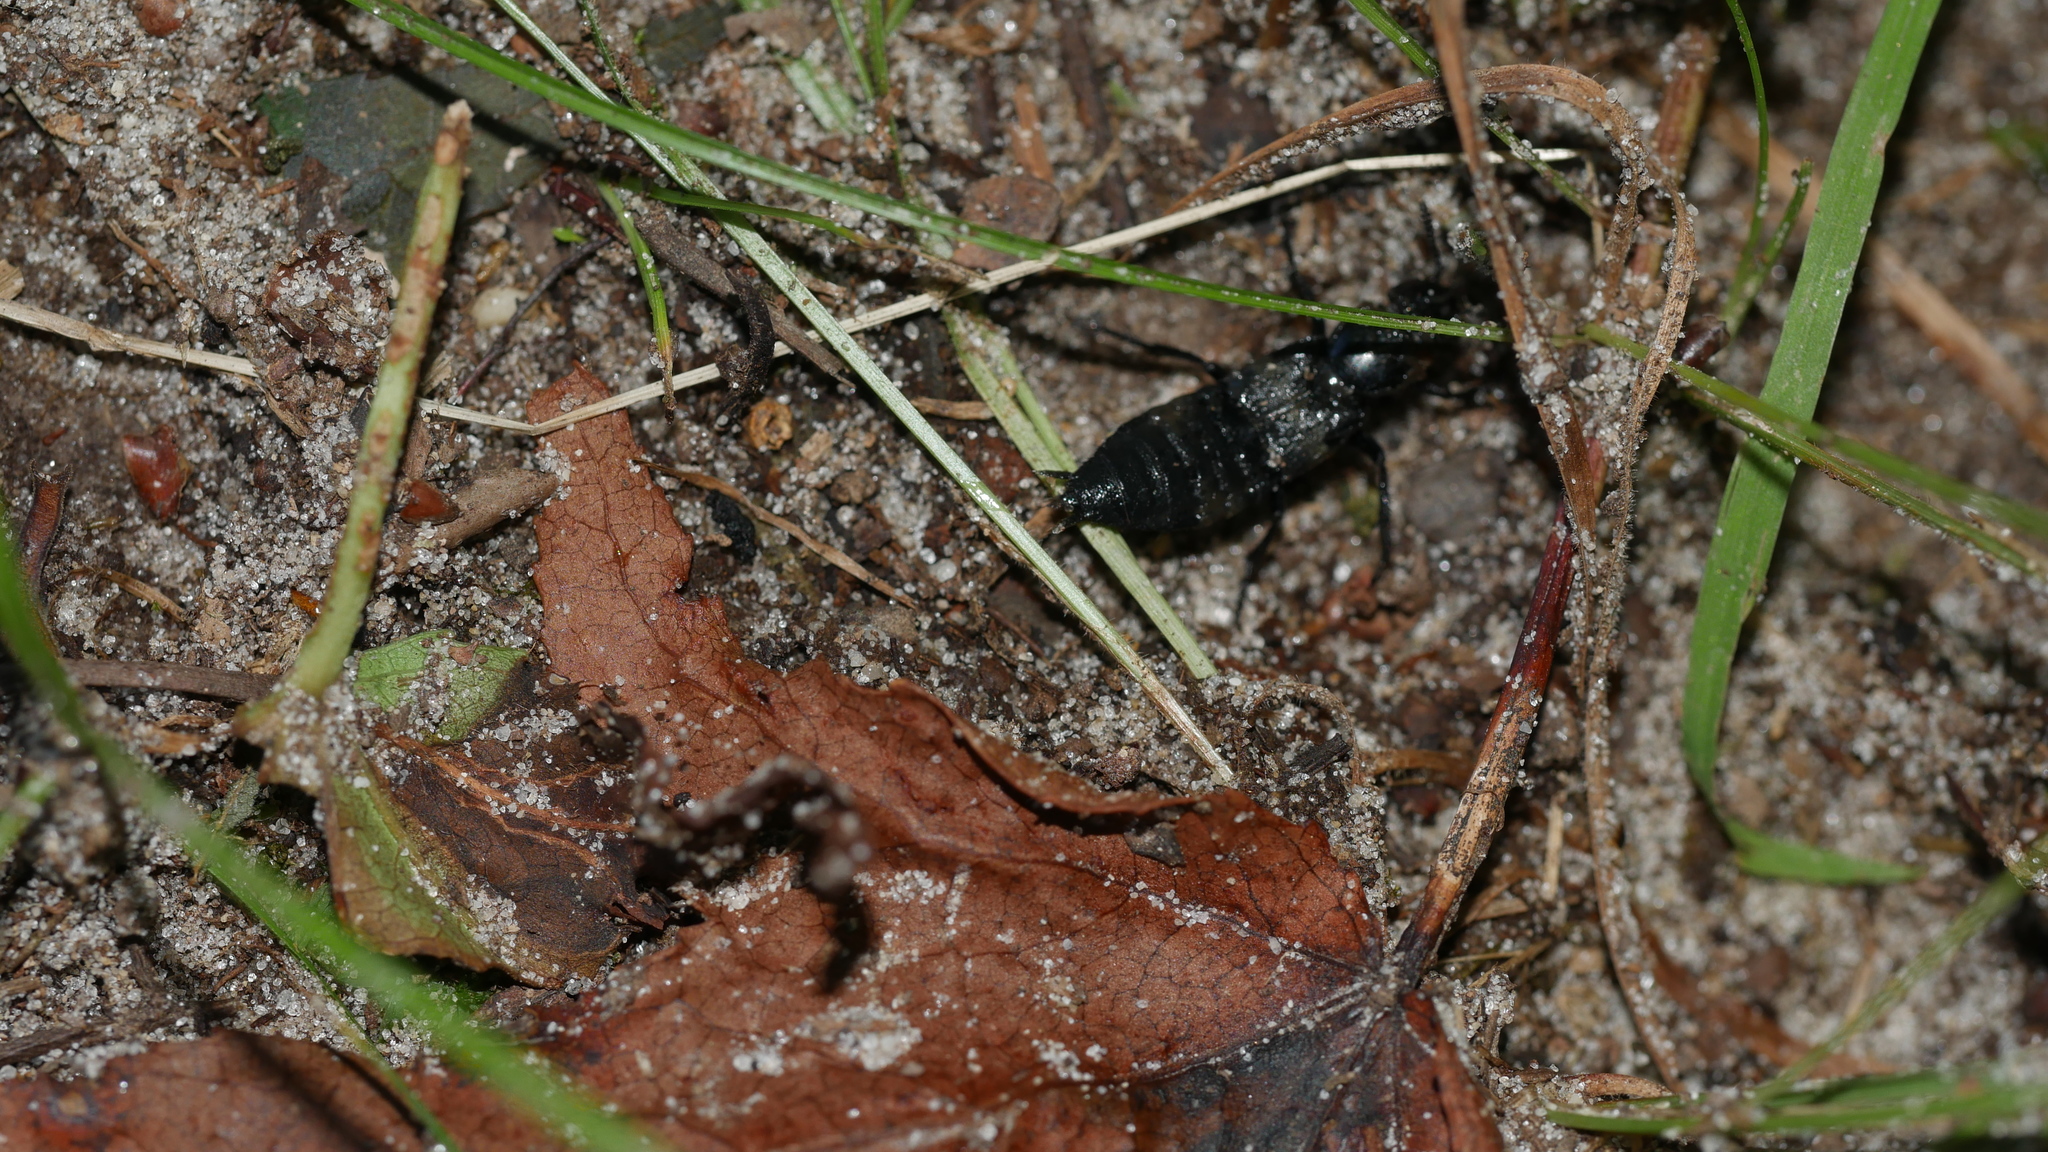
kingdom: Animalia
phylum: Arthropoda
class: Insecta
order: Coleoptera
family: Staphylinidae
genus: Creophilus
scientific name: Creophilus maxillosus
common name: Hairy rove beetle
